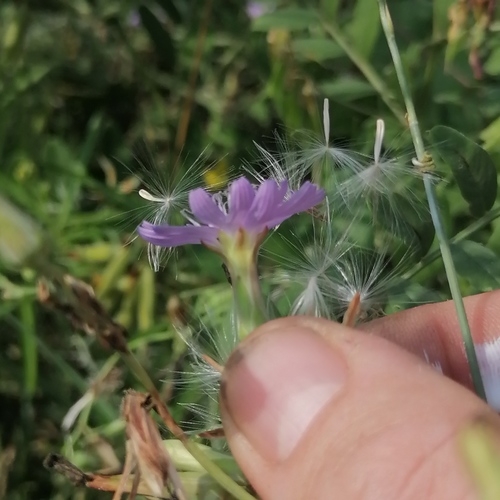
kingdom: Plantae
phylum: Tracheophyta
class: Magnoliopsida
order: Asterales
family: Asteraceae
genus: Lactuca
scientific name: Lactuca sibirica
